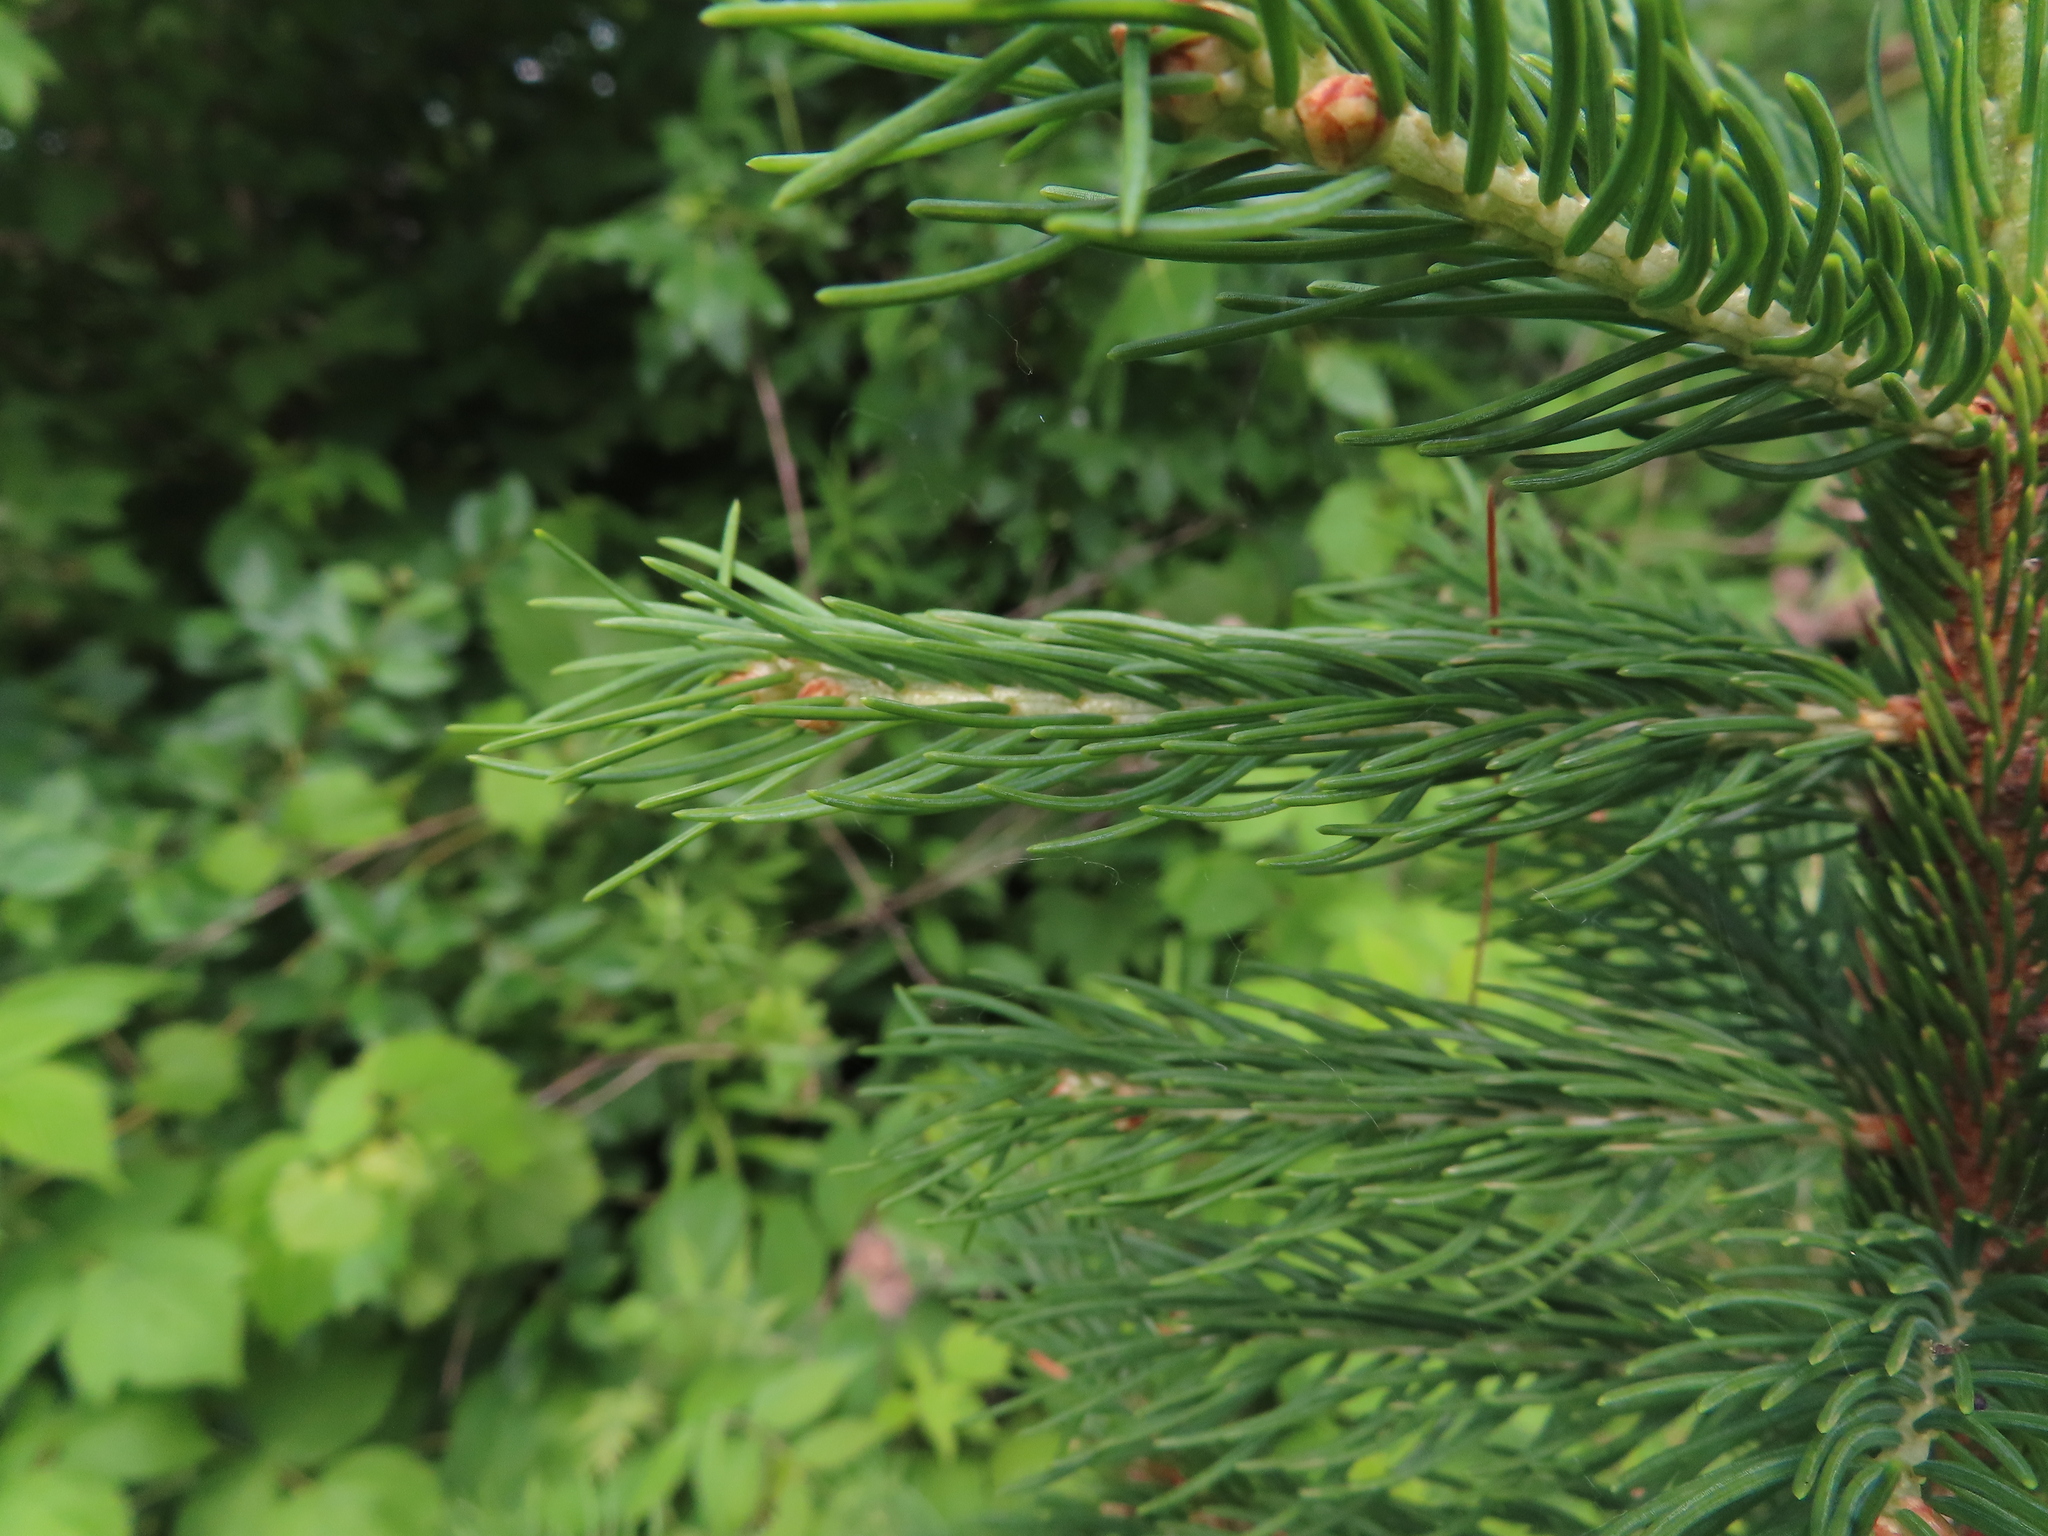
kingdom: Plantae
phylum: Tracheophyta
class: Pinopsida
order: Pinales
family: Pinaceae
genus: Picea
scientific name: Picea abies
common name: Norway spruce
